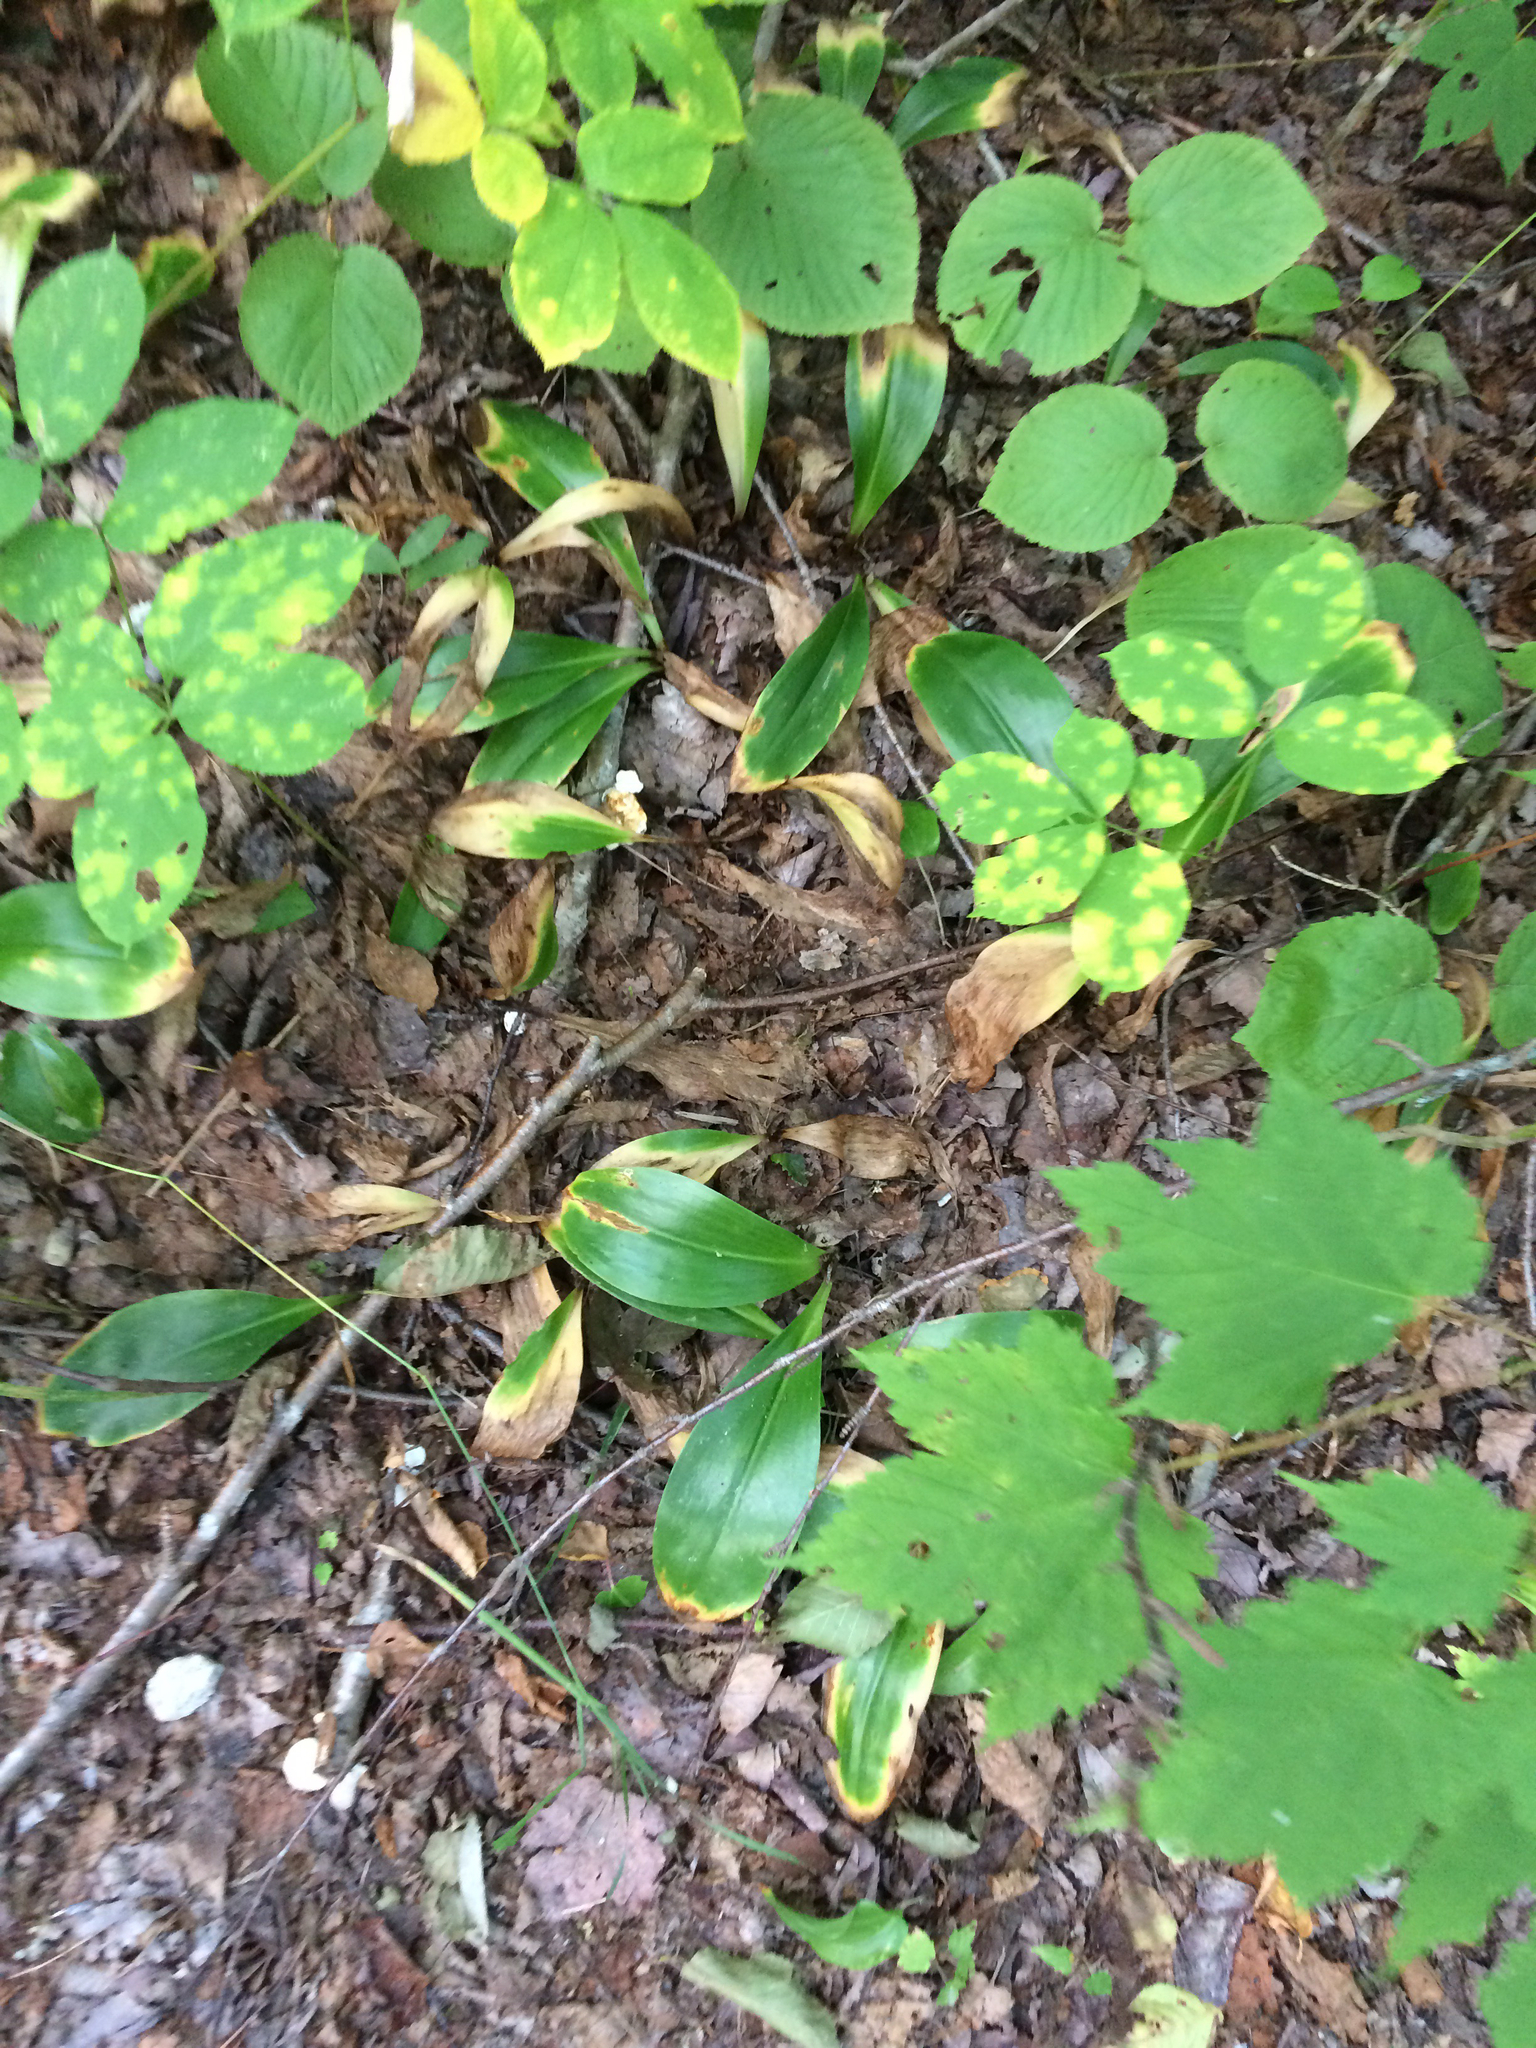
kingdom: Plantae
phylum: Tracheophyta
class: Liliopsida
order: Liliales
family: Liliaceae
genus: Clintonia
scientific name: Clintonia borealis
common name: Yellow clintonia
